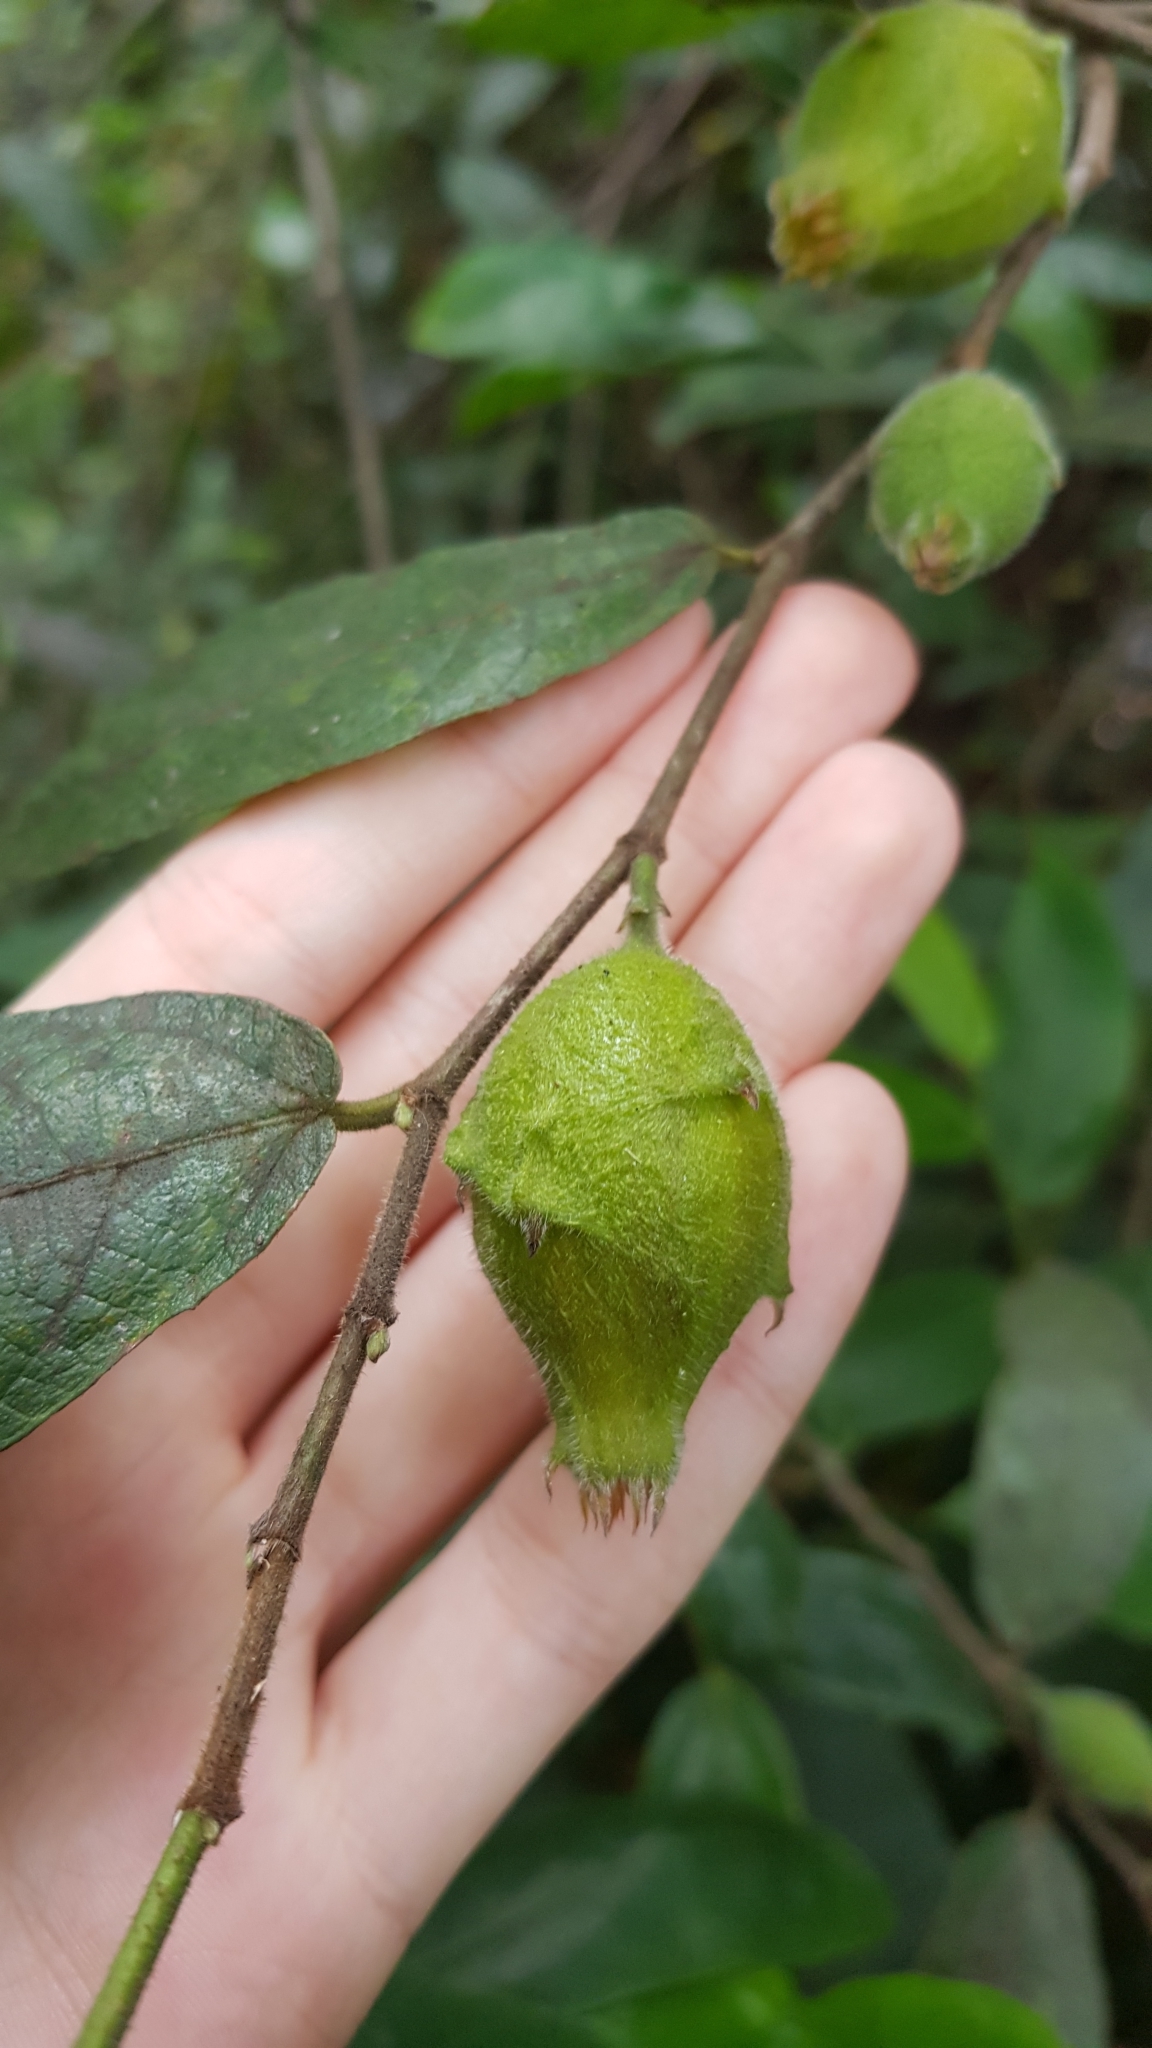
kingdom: Plantae
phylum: Tracheophyta
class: Magnoliopsida
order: Rosales
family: Moraceae
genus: Ficus
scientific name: Ficus coronata
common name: Creek sandpaper fig
